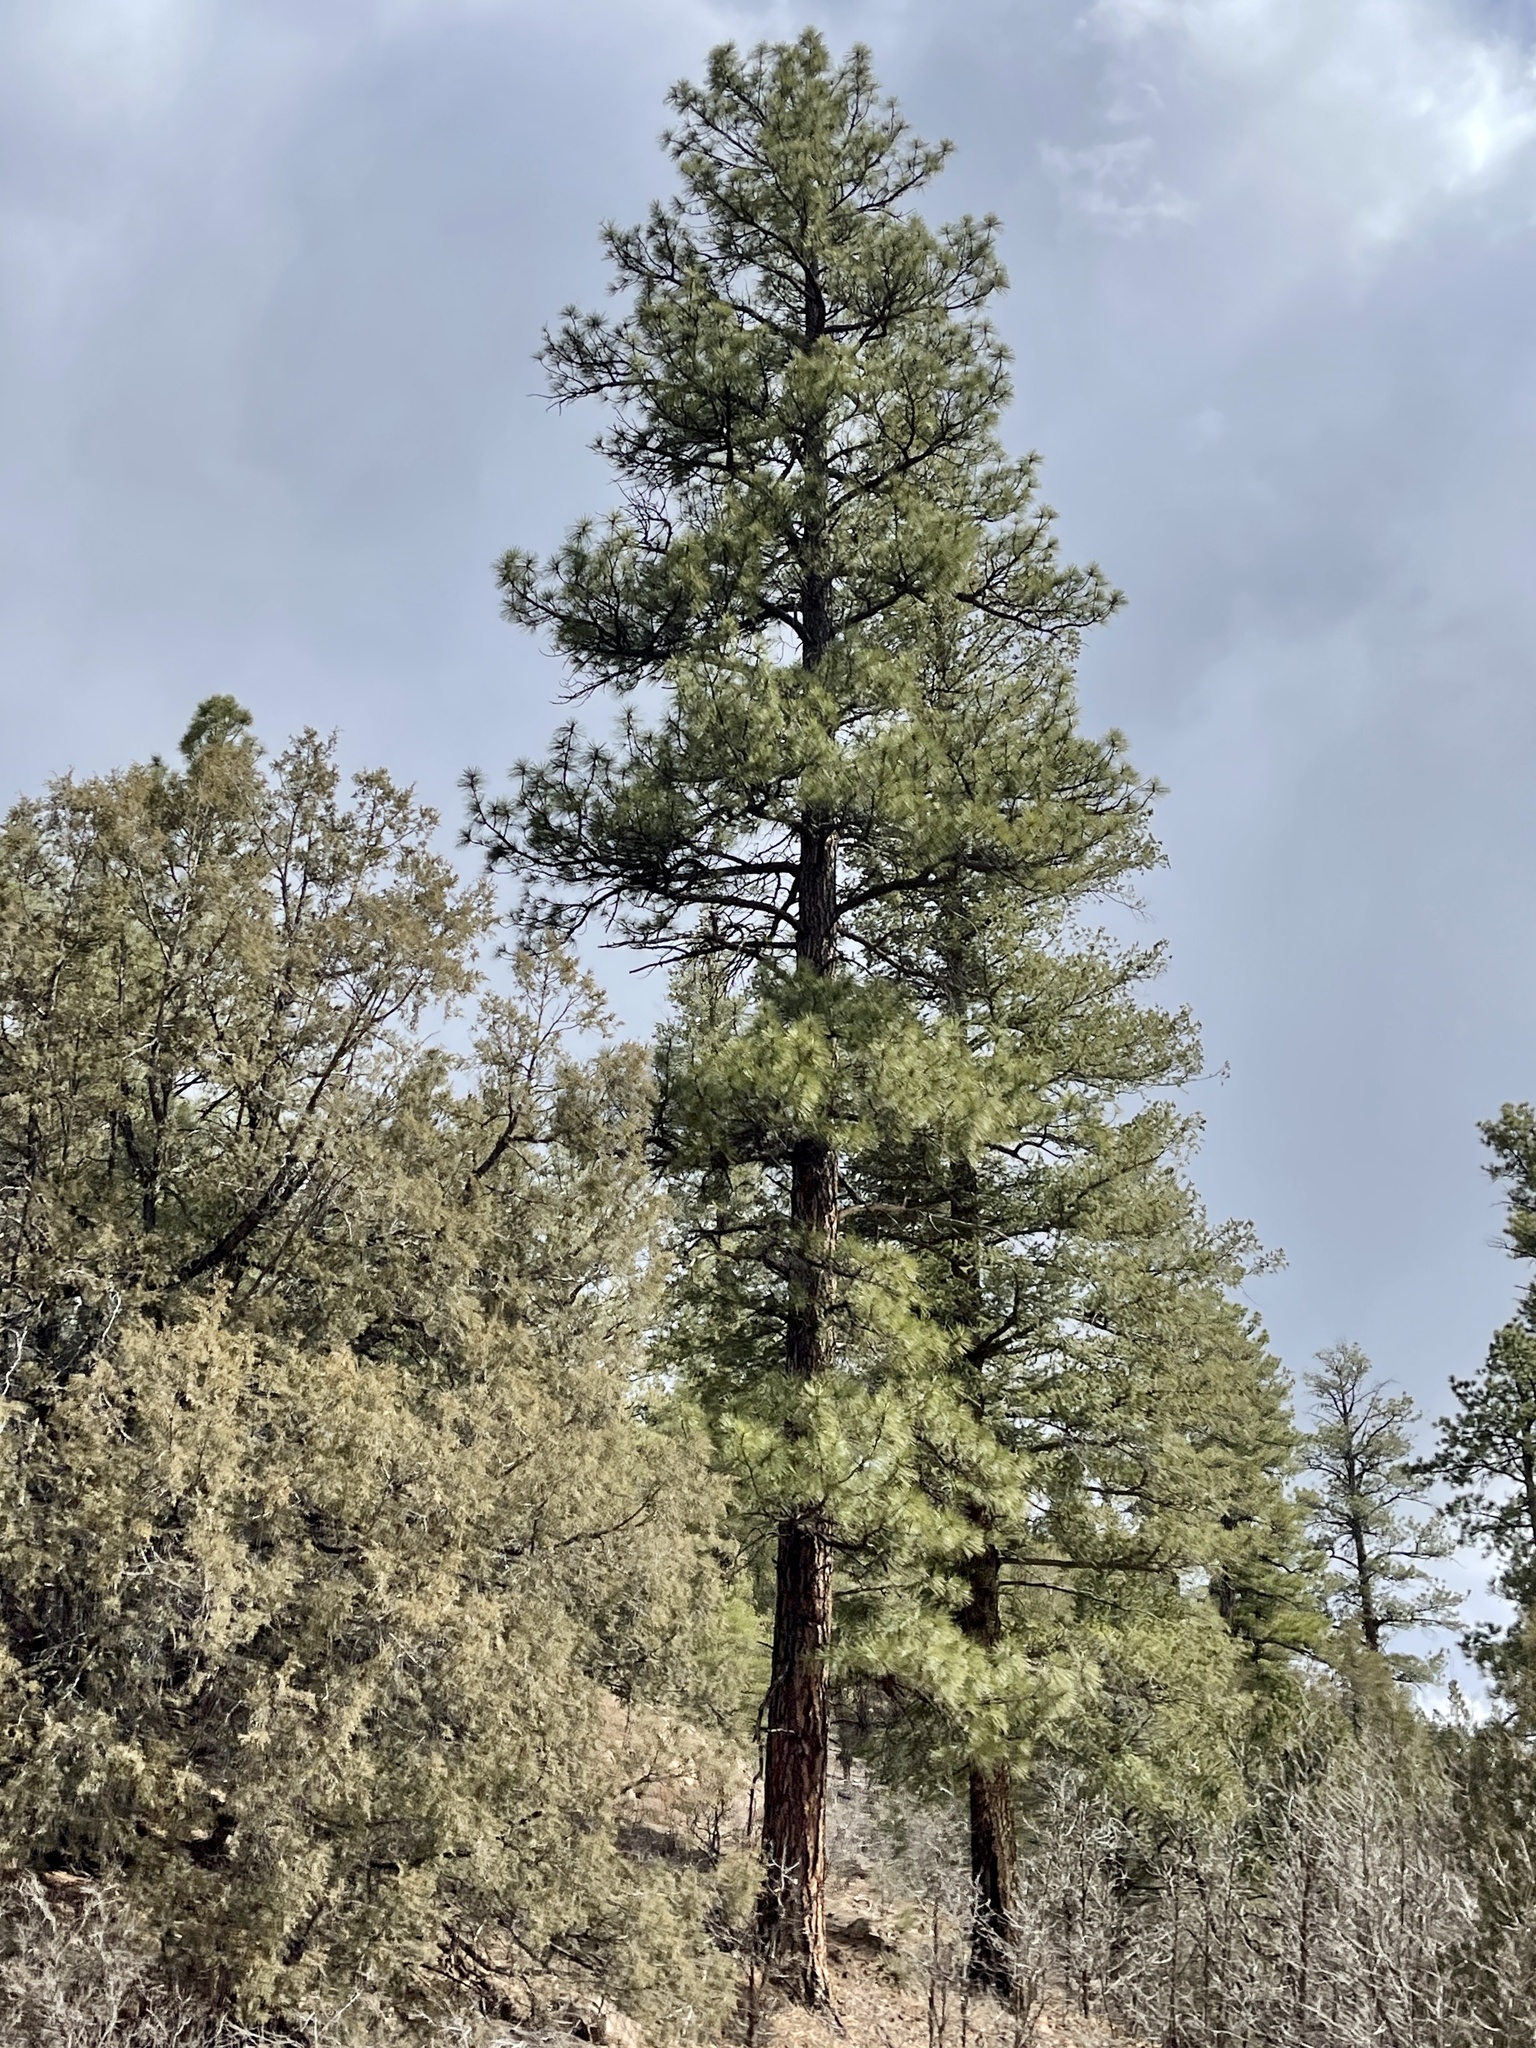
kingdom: Plantae
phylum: Tracheophyta
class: Pinopsida
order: Pinales
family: Pinaceae
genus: Pinus
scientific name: Pinus ponderosa
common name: Western yellow-pine
